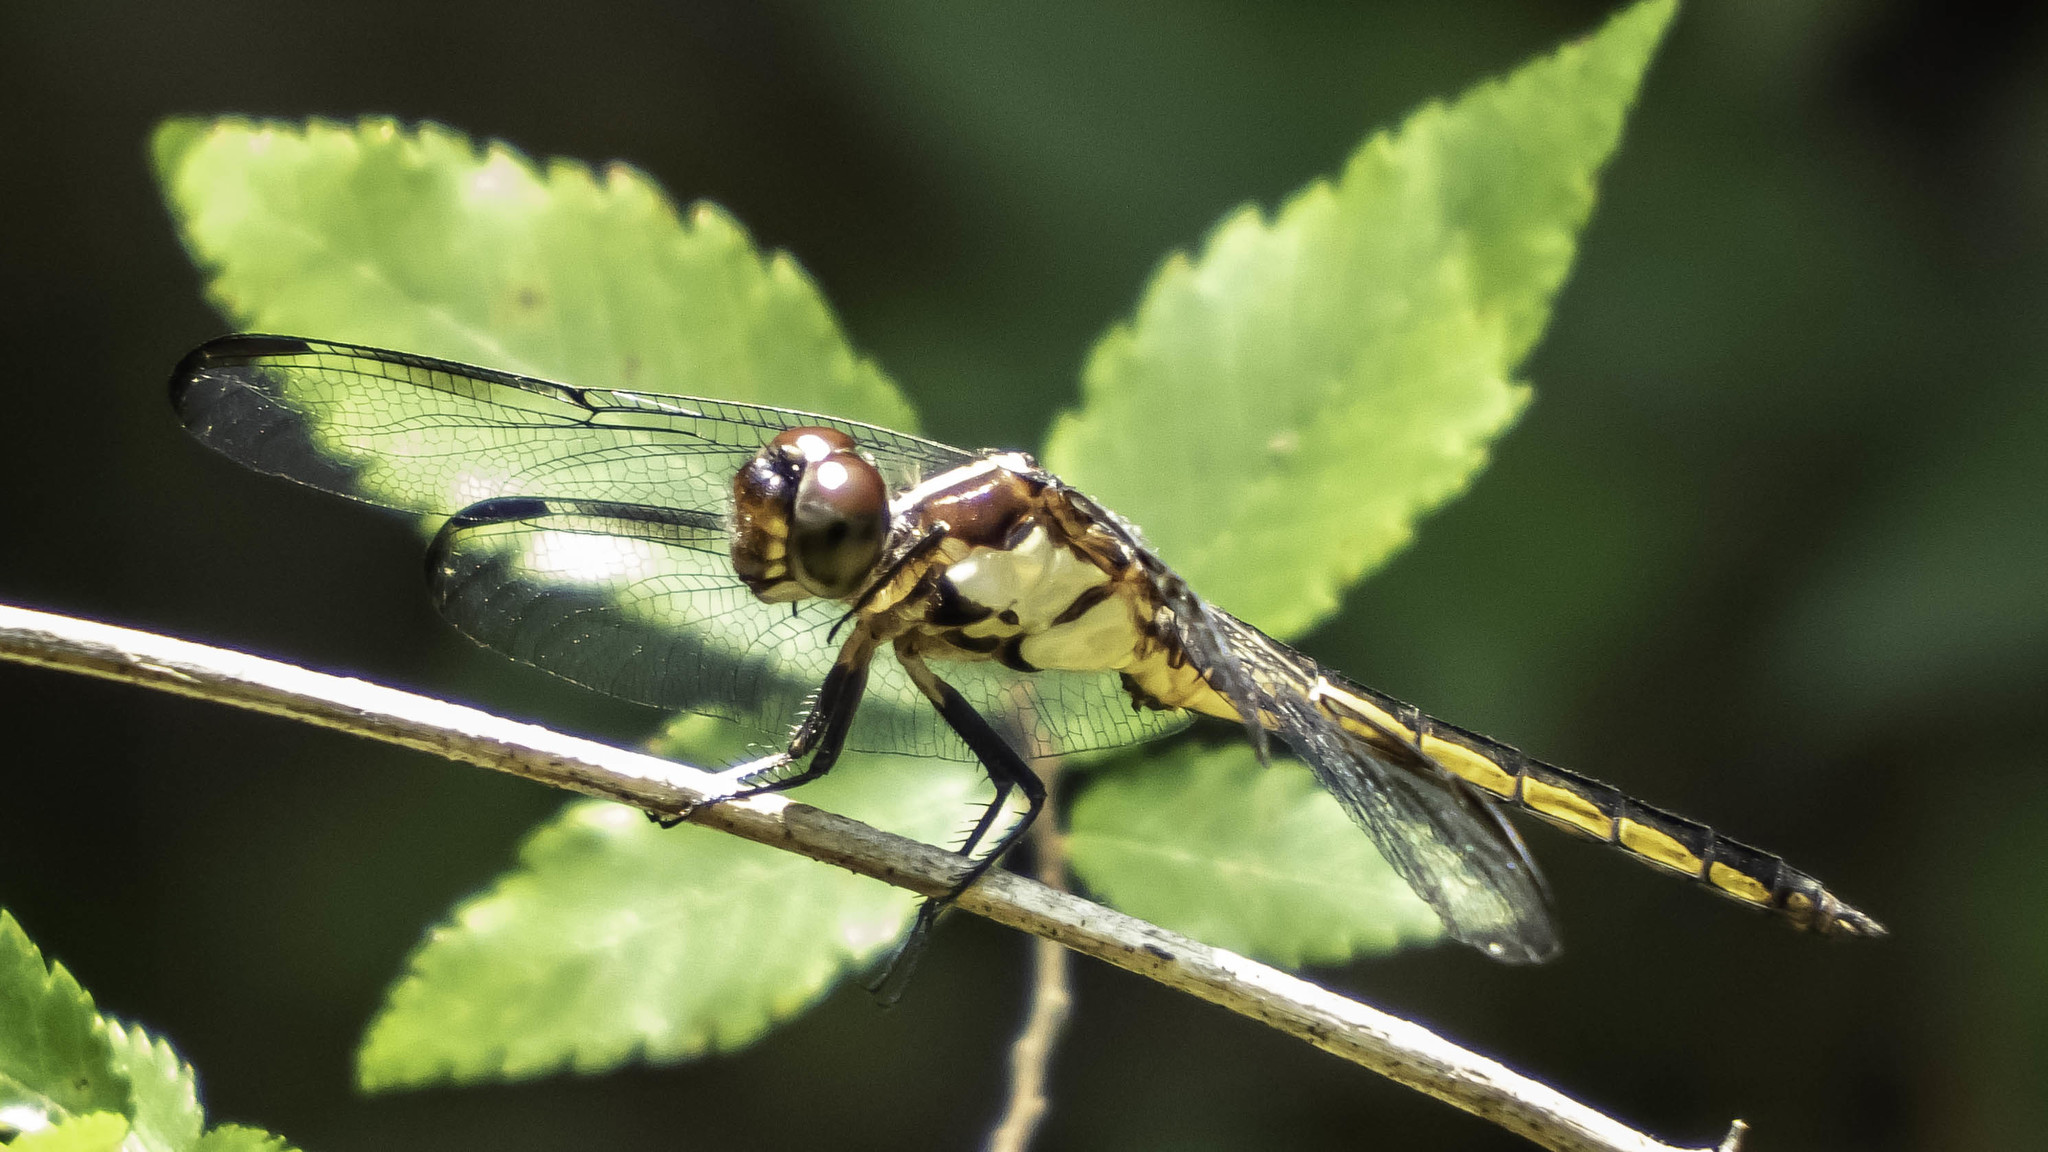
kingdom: Animalia
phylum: Arthropoda
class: Insecta
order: Odonata
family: Libellulidae
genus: Libellula
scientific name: Libellula incesta
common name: Slaty skimmer
